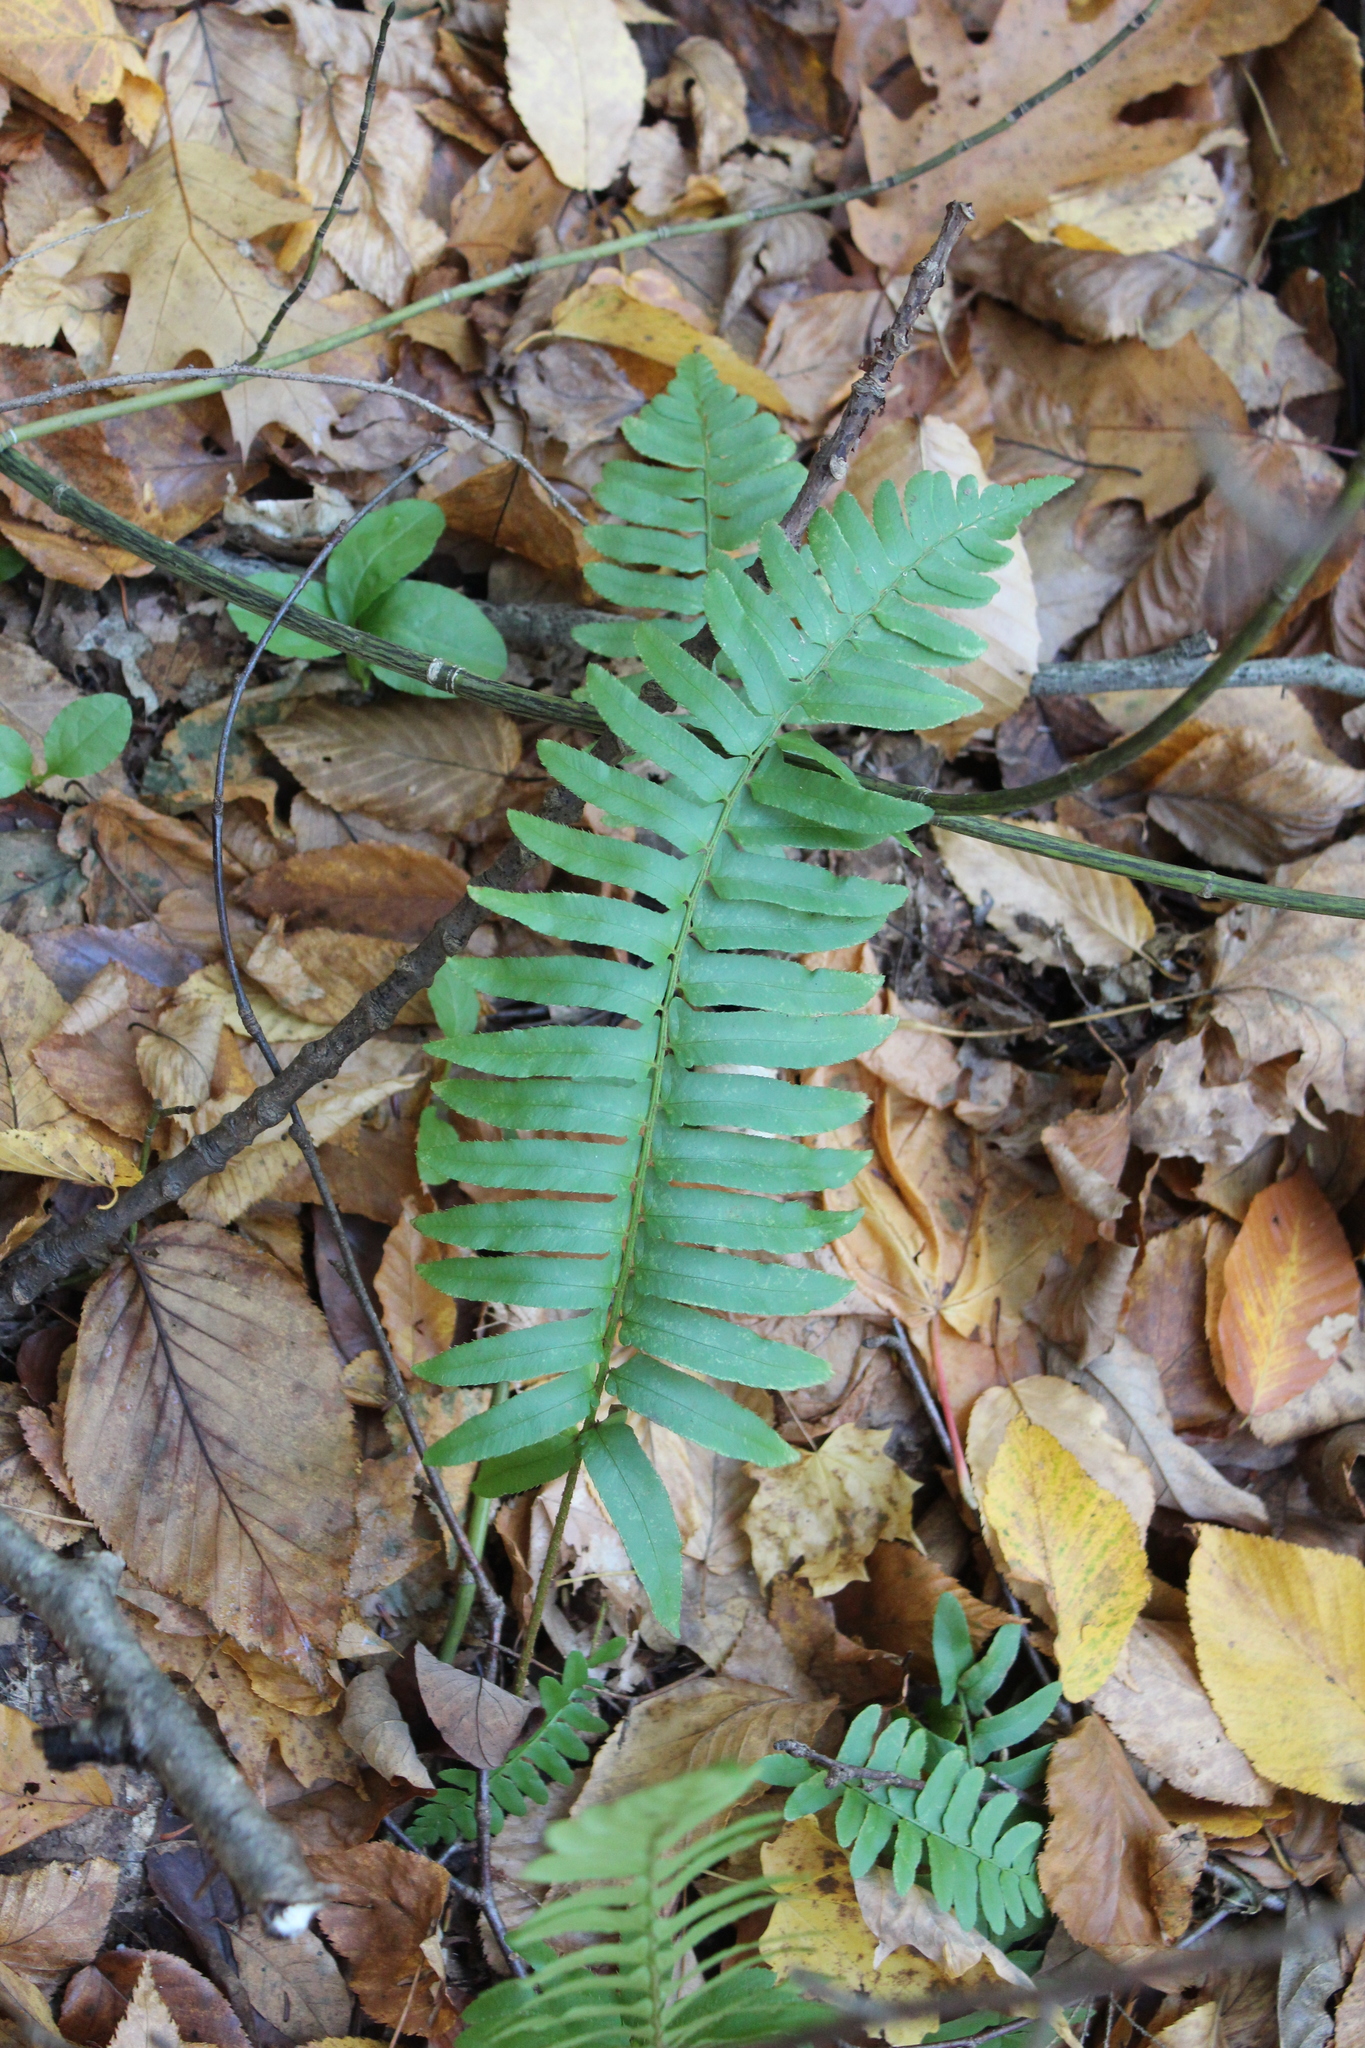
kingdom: Plantae
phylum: Tracheophyta
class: Polypodiopsida
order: Polypodiales
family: Dryopteridaceae
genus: Polystichum
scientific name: Polystichum acrostichoides
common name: Christmas fern
